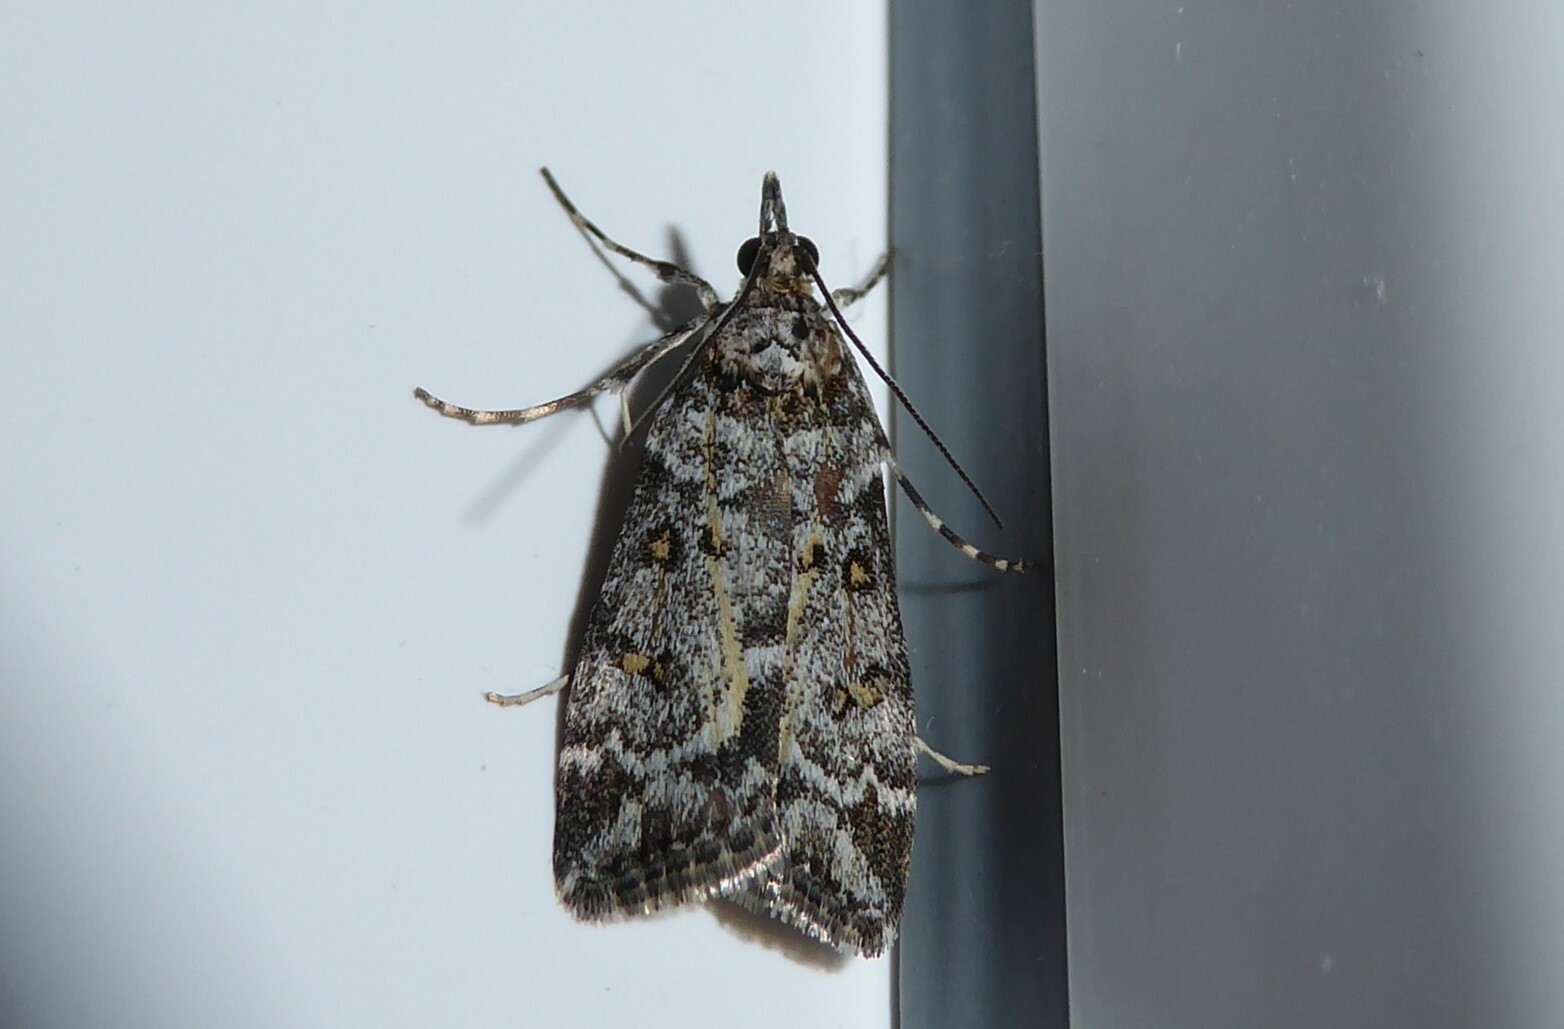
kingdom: Animalia
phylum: Arthropoda
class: Insecta
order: Lepidoptera
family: Crambidae
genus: Scoparia
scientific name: Scoparia tetracycla
